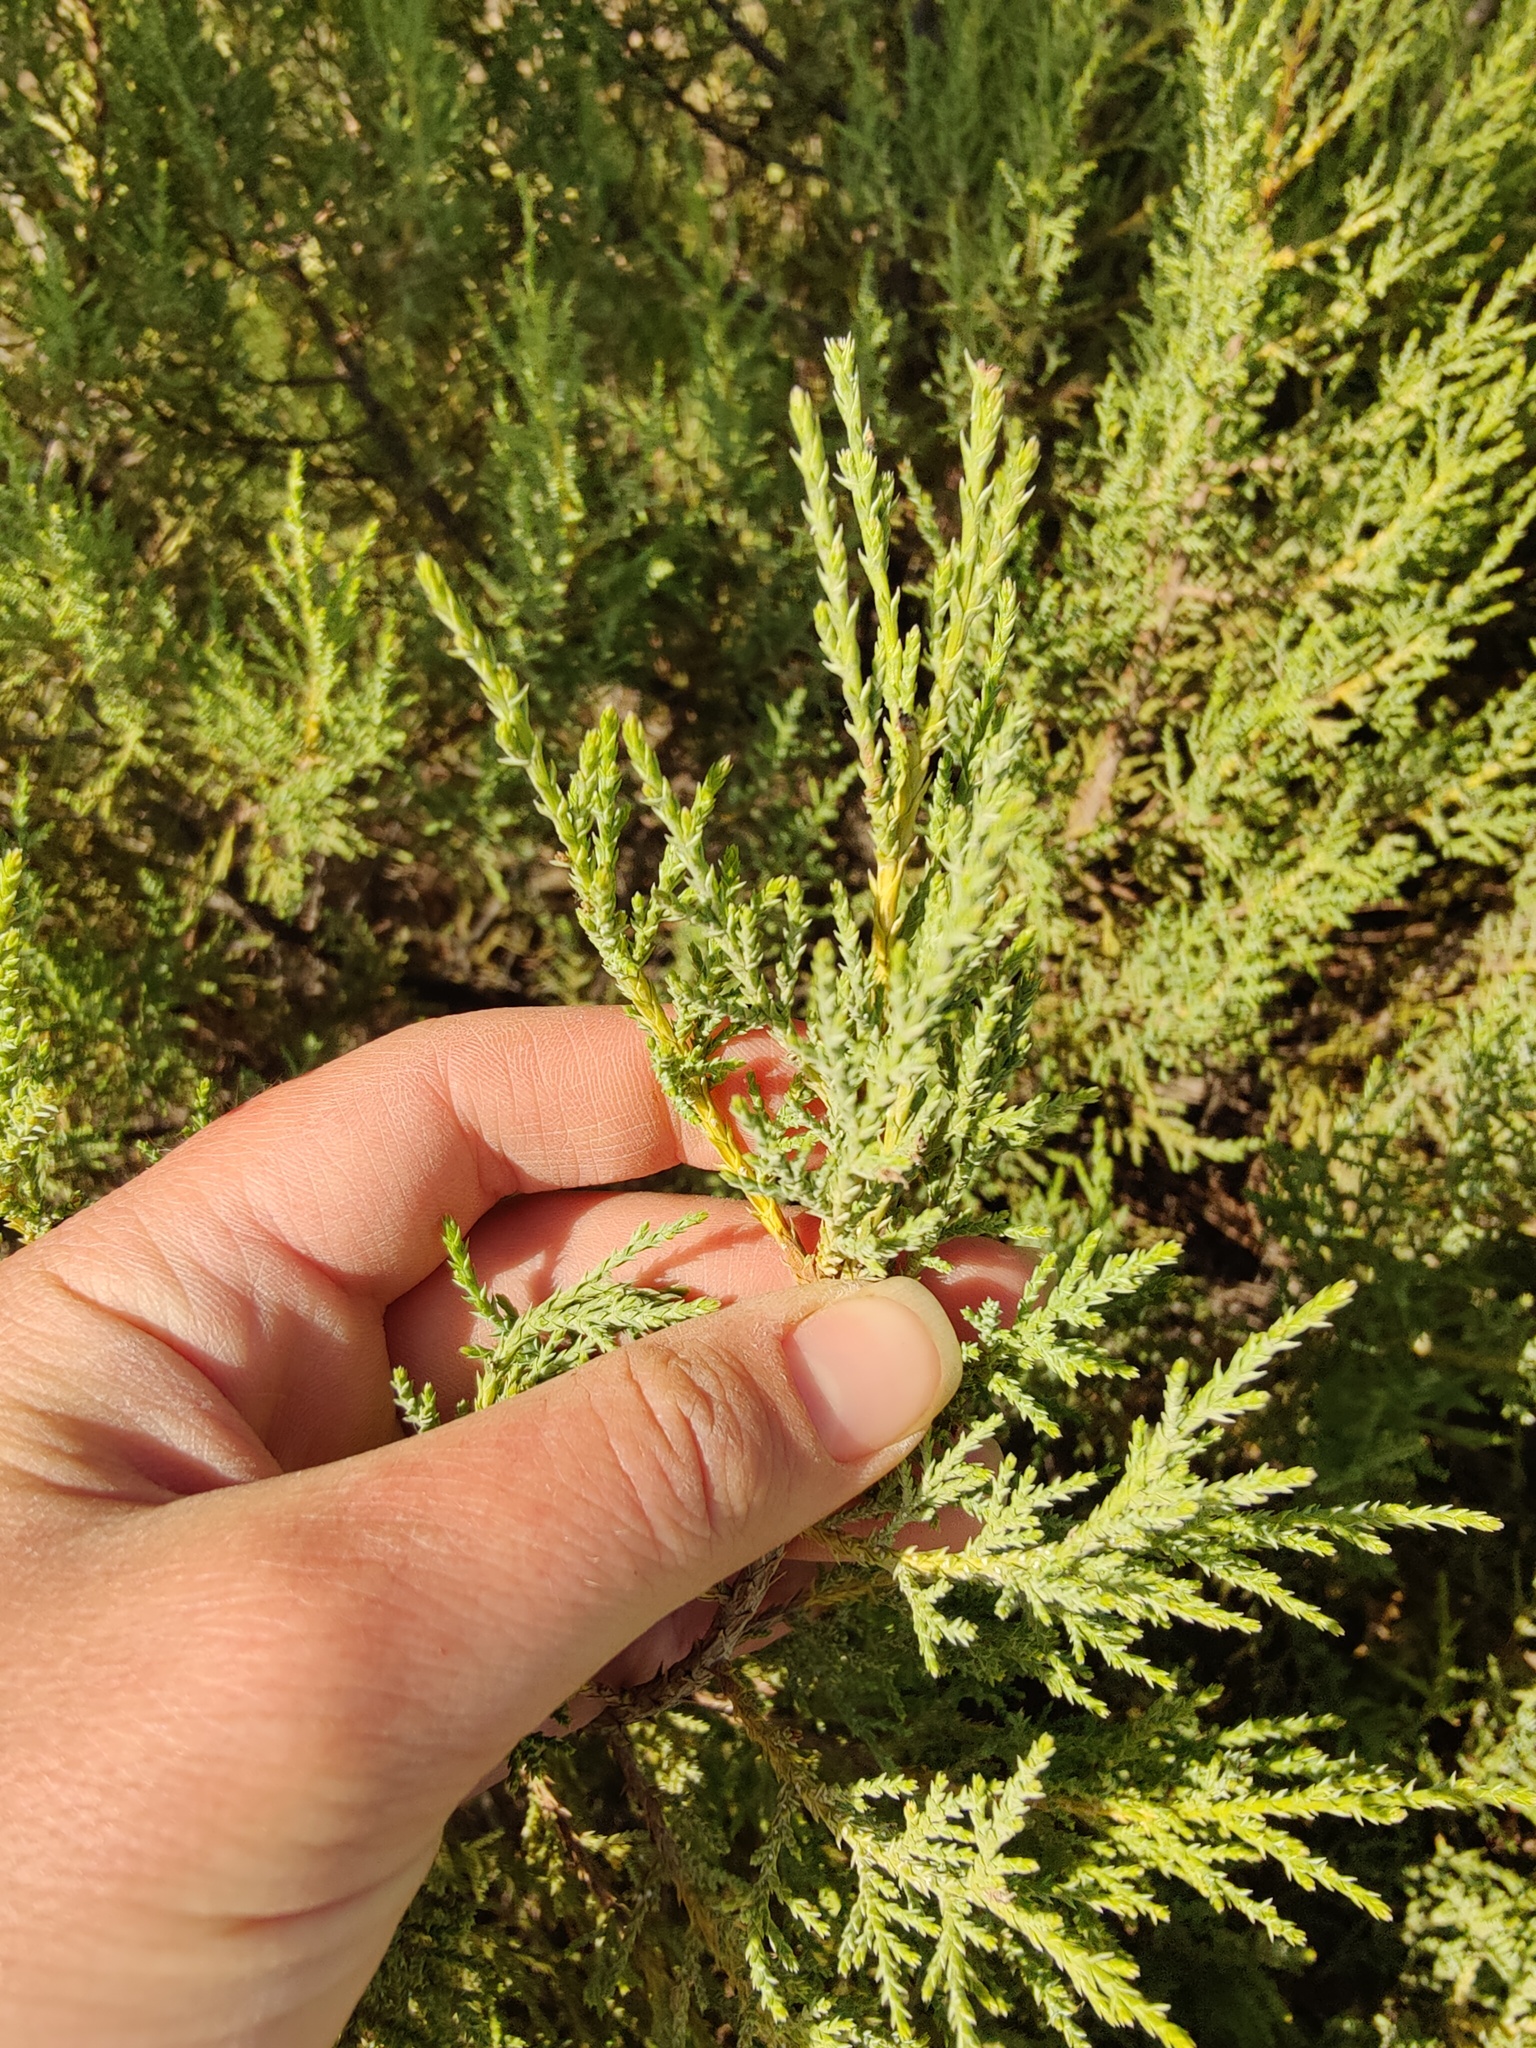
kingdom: Plantae
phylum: Tracheophyta
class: Pinopsida
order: Pinales
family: Cupressaceae
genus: Juniperus
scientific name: Juniperus foetidissima
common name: Stinking juniper
